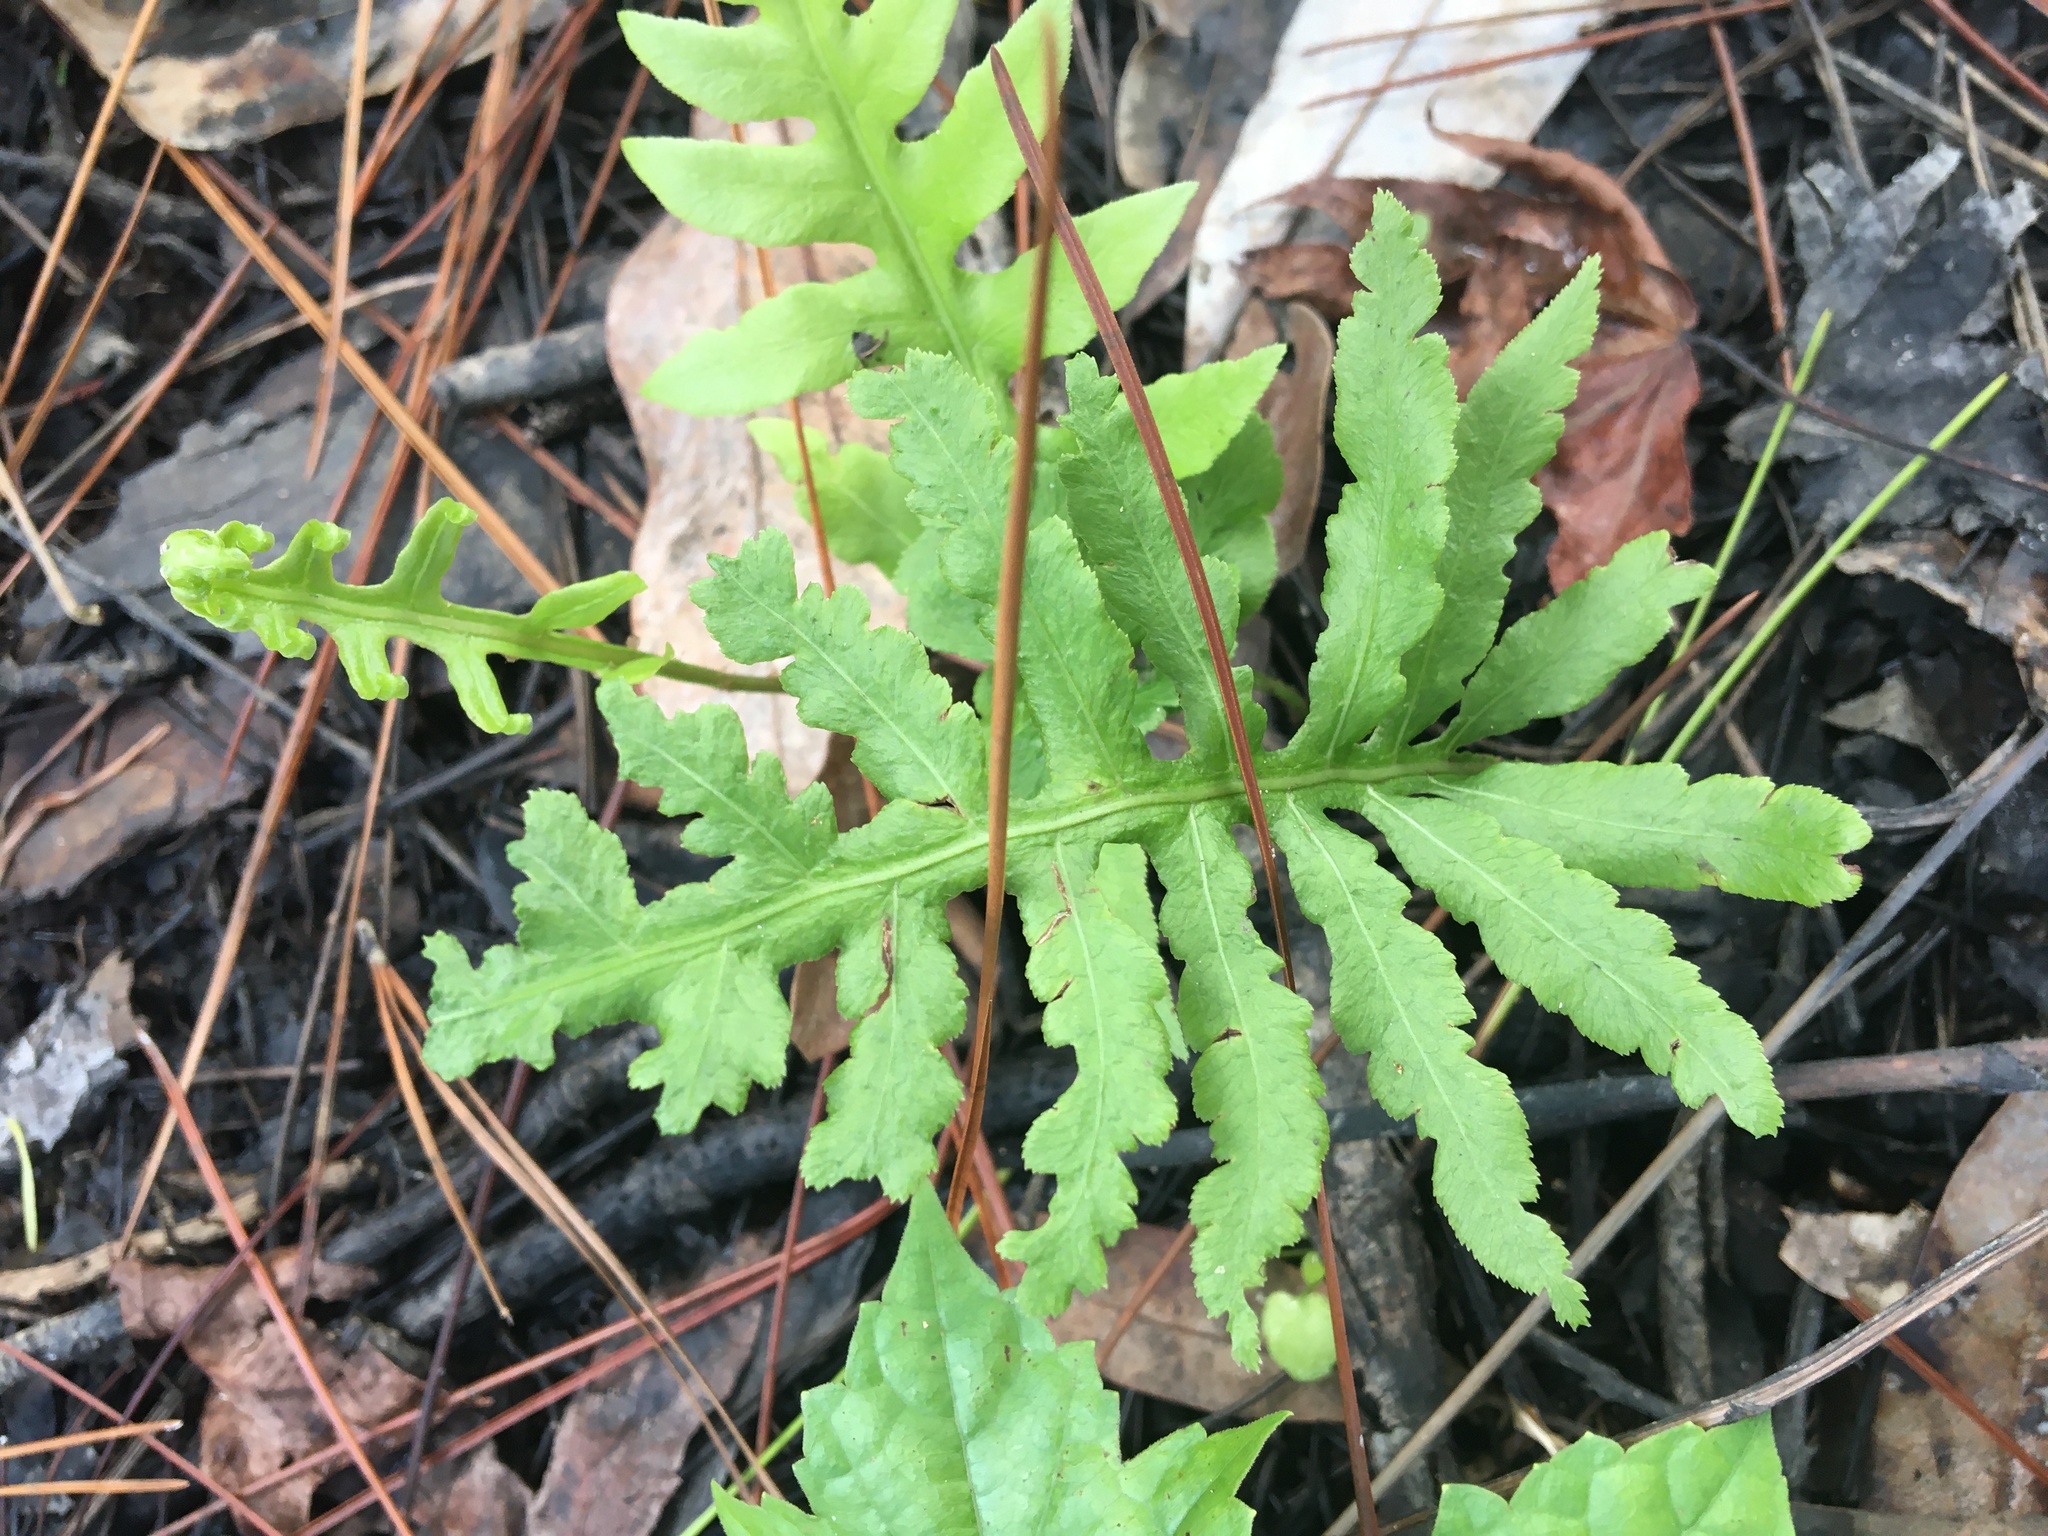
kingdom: Plantae
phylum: Tracheophyta
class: Polypodiopsida
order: Polypodiales
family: Blechnaceae
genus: Lorinseria
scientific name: Lorinseria areolata
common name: Dwarf chain fern
